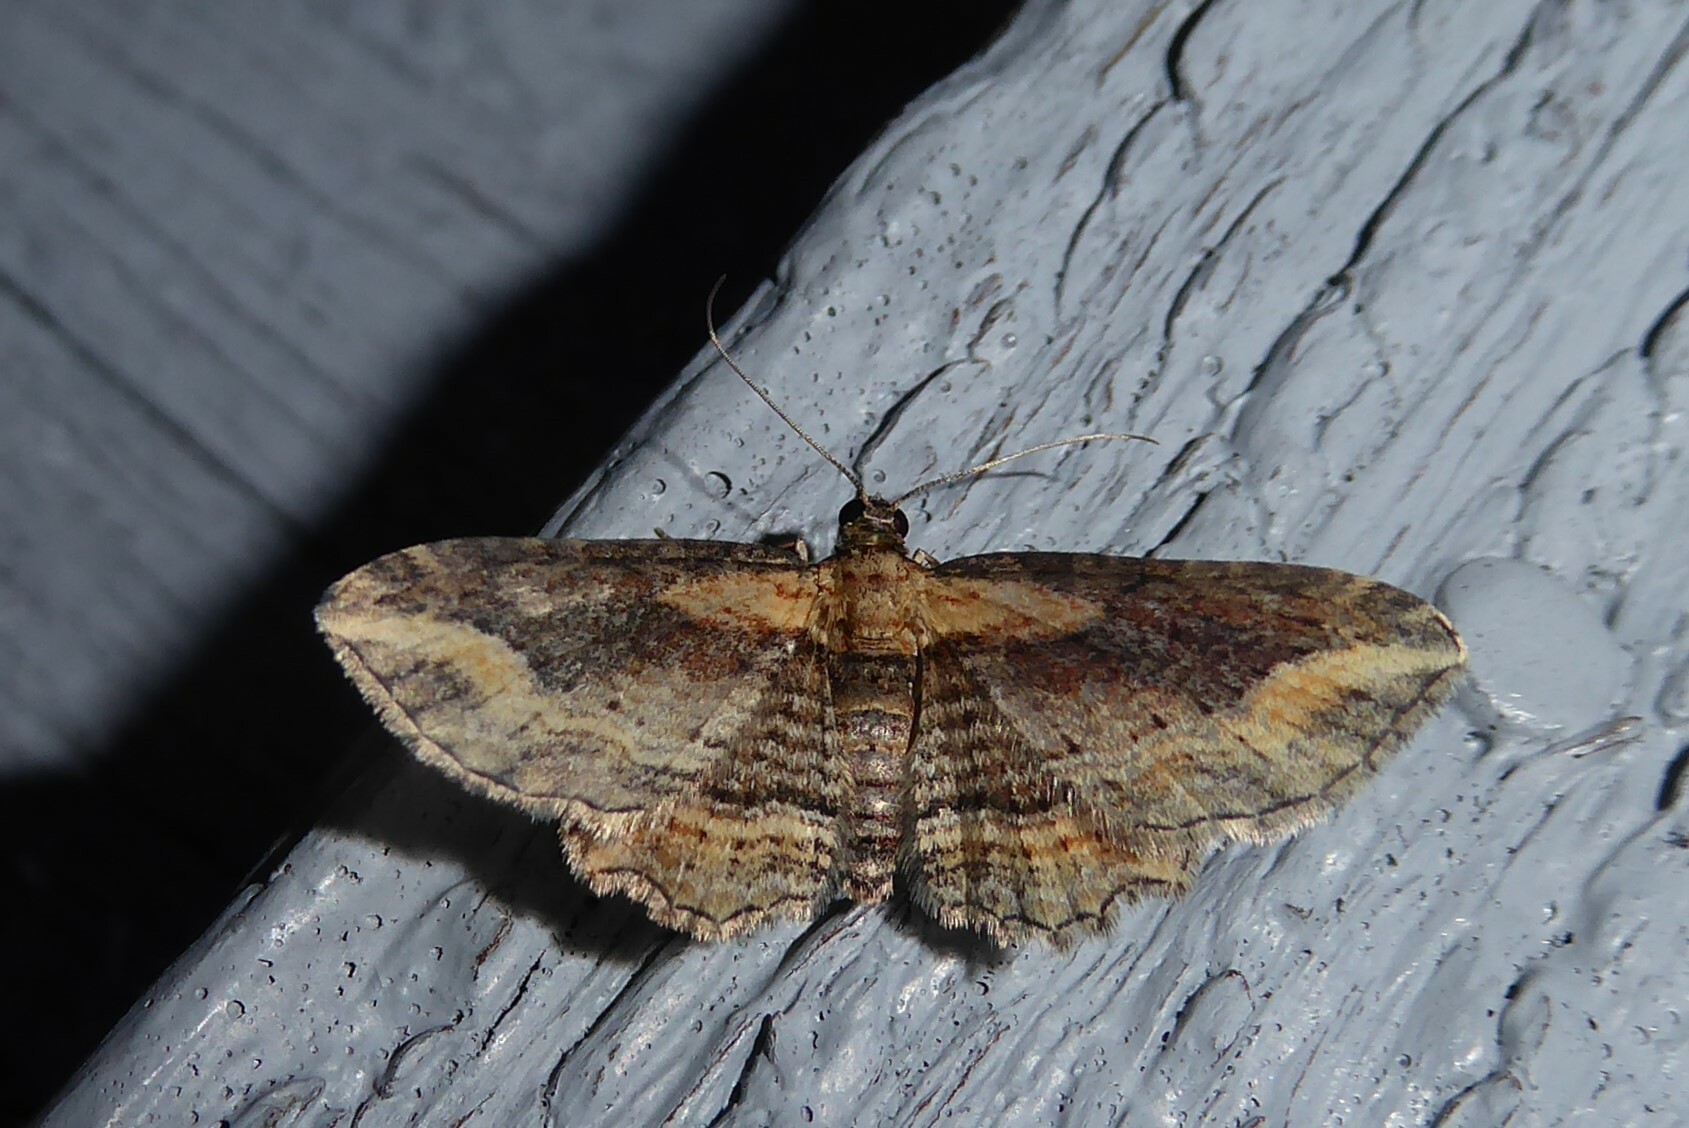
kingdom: Animalia
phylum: Arthropoda
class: Insecta
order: Lepidoptera
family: Geometridae
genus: Chloroclystis
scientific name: Chloroclystis filata
